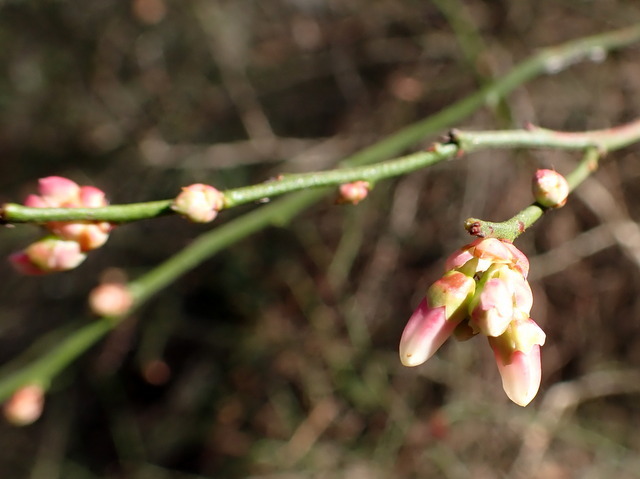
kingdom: Plantae
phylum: Tracheophyta
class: Magnoliopsida
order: Ericales
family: Ericaceae
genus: Vaccinium
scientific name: Vaccinium corymbosum
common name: Blueberry
